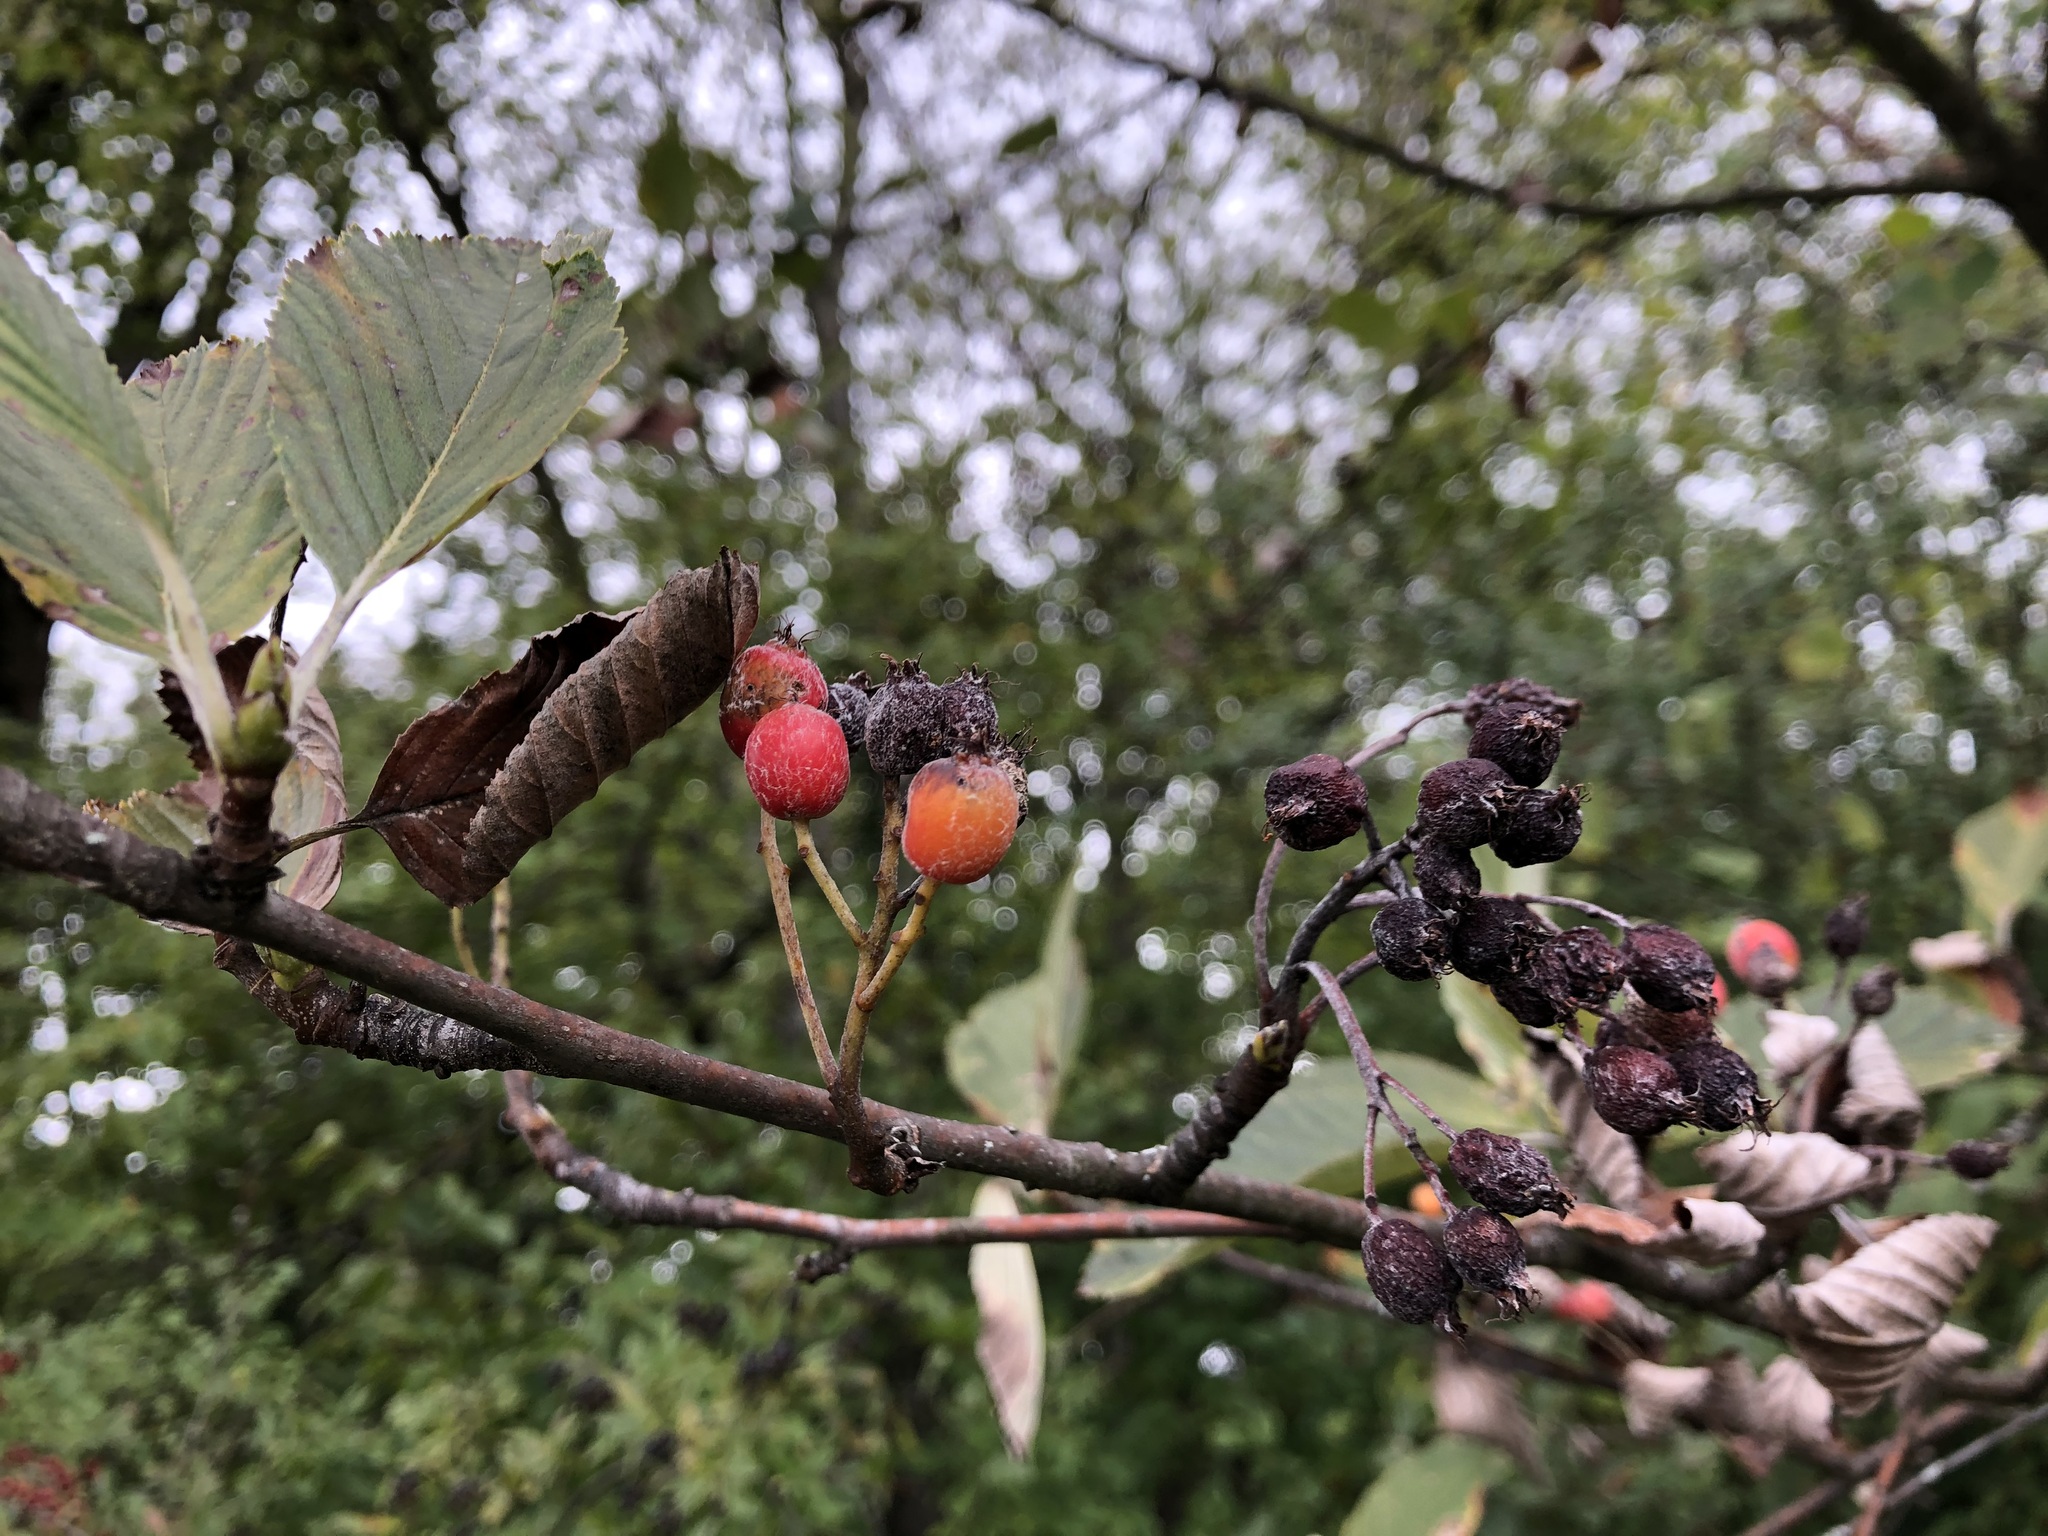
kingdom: Plantae
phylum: Tracheophyta
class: Magnoliopsida
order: Rosales
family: Rosaceae
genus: Aria
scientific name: Aria edulis
